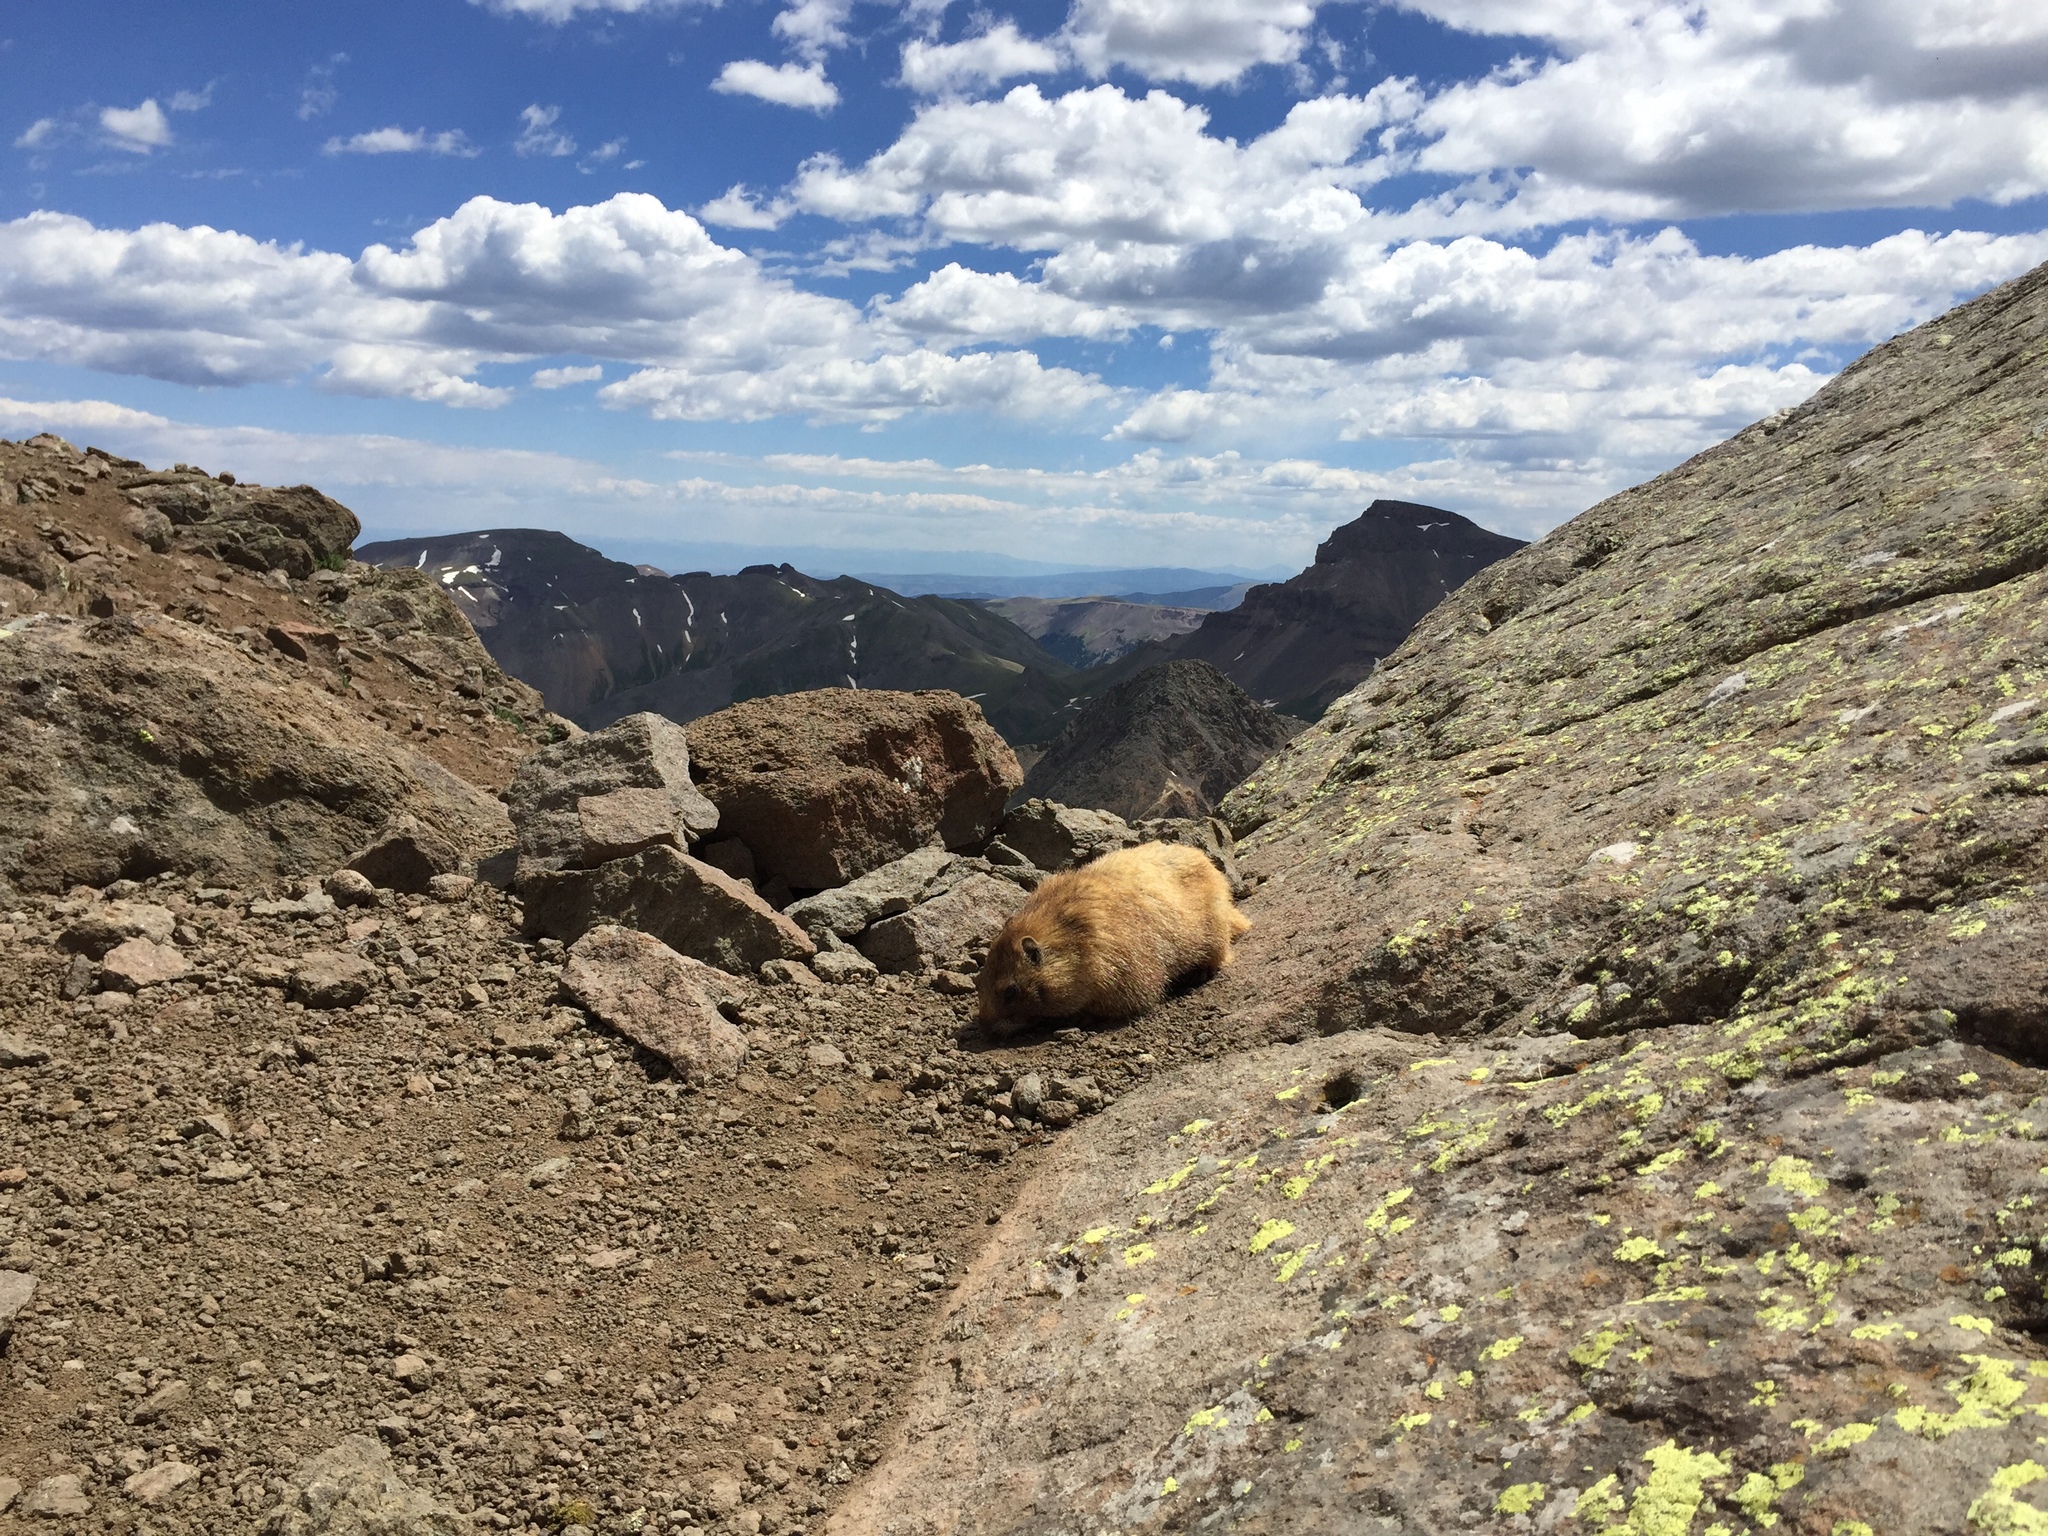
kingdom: Animalia
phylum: Chordata
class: Mammalia
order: Rodentia
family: Sciuridae
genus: Marmota
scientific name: Marmota flaviventris
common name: Yellow-bellied marmot
